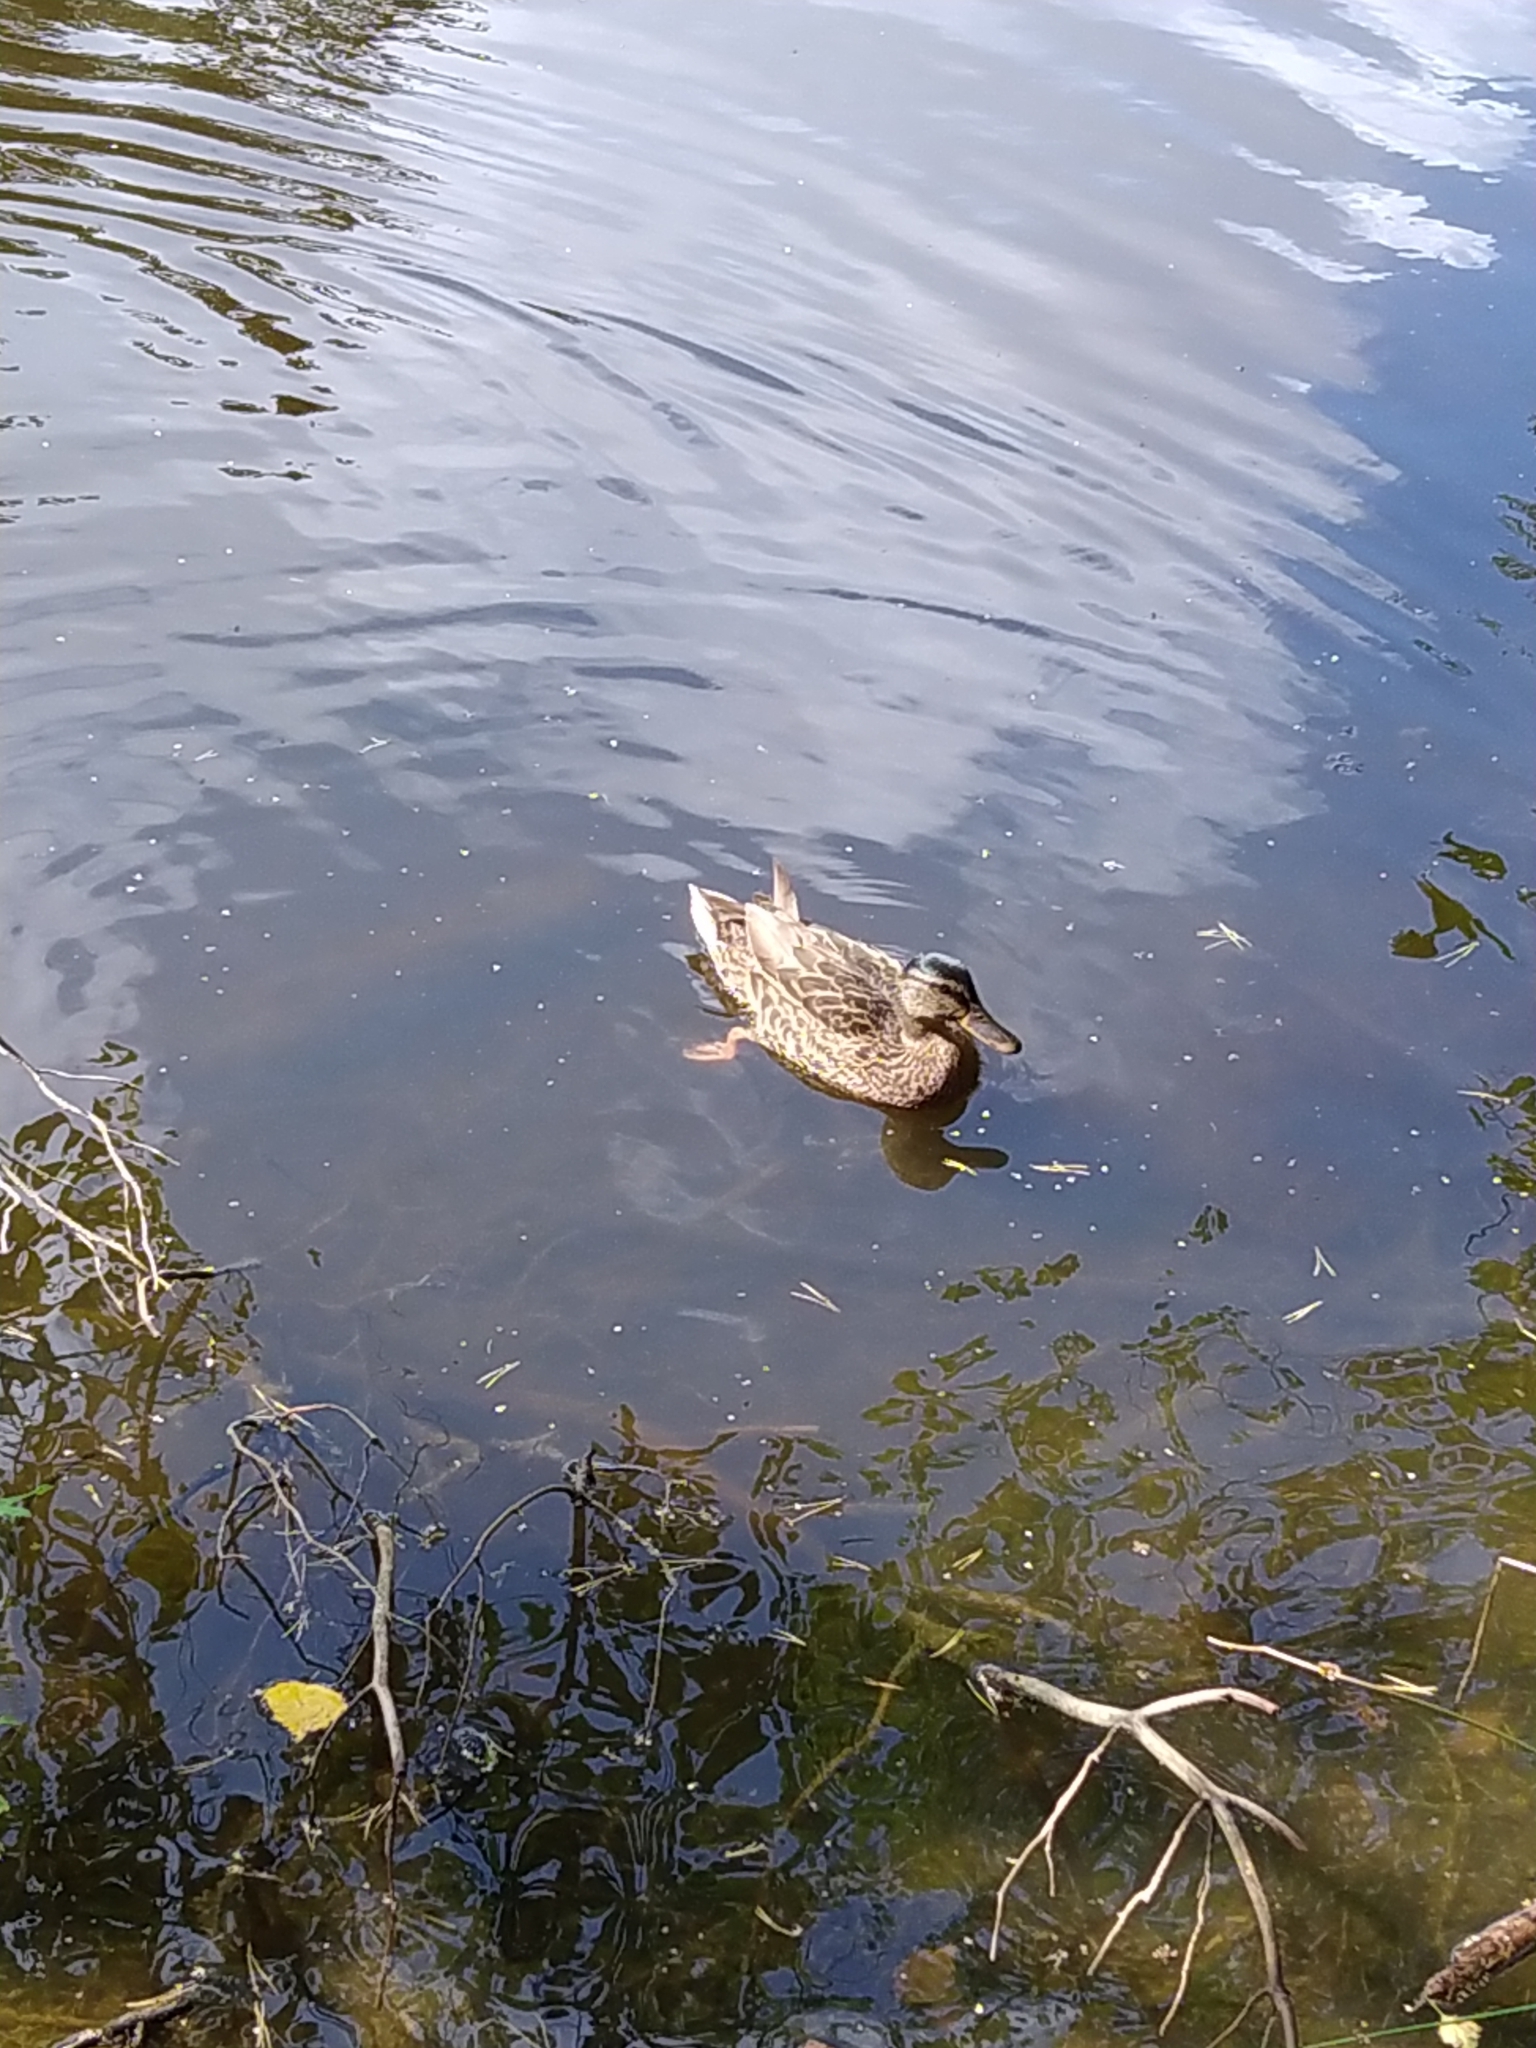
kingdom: Animalia
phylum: Chordata
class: Aves
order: Anseriformes
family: Anatidae
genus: Anas
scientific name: Anas platyrhynchos
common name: Mallard
